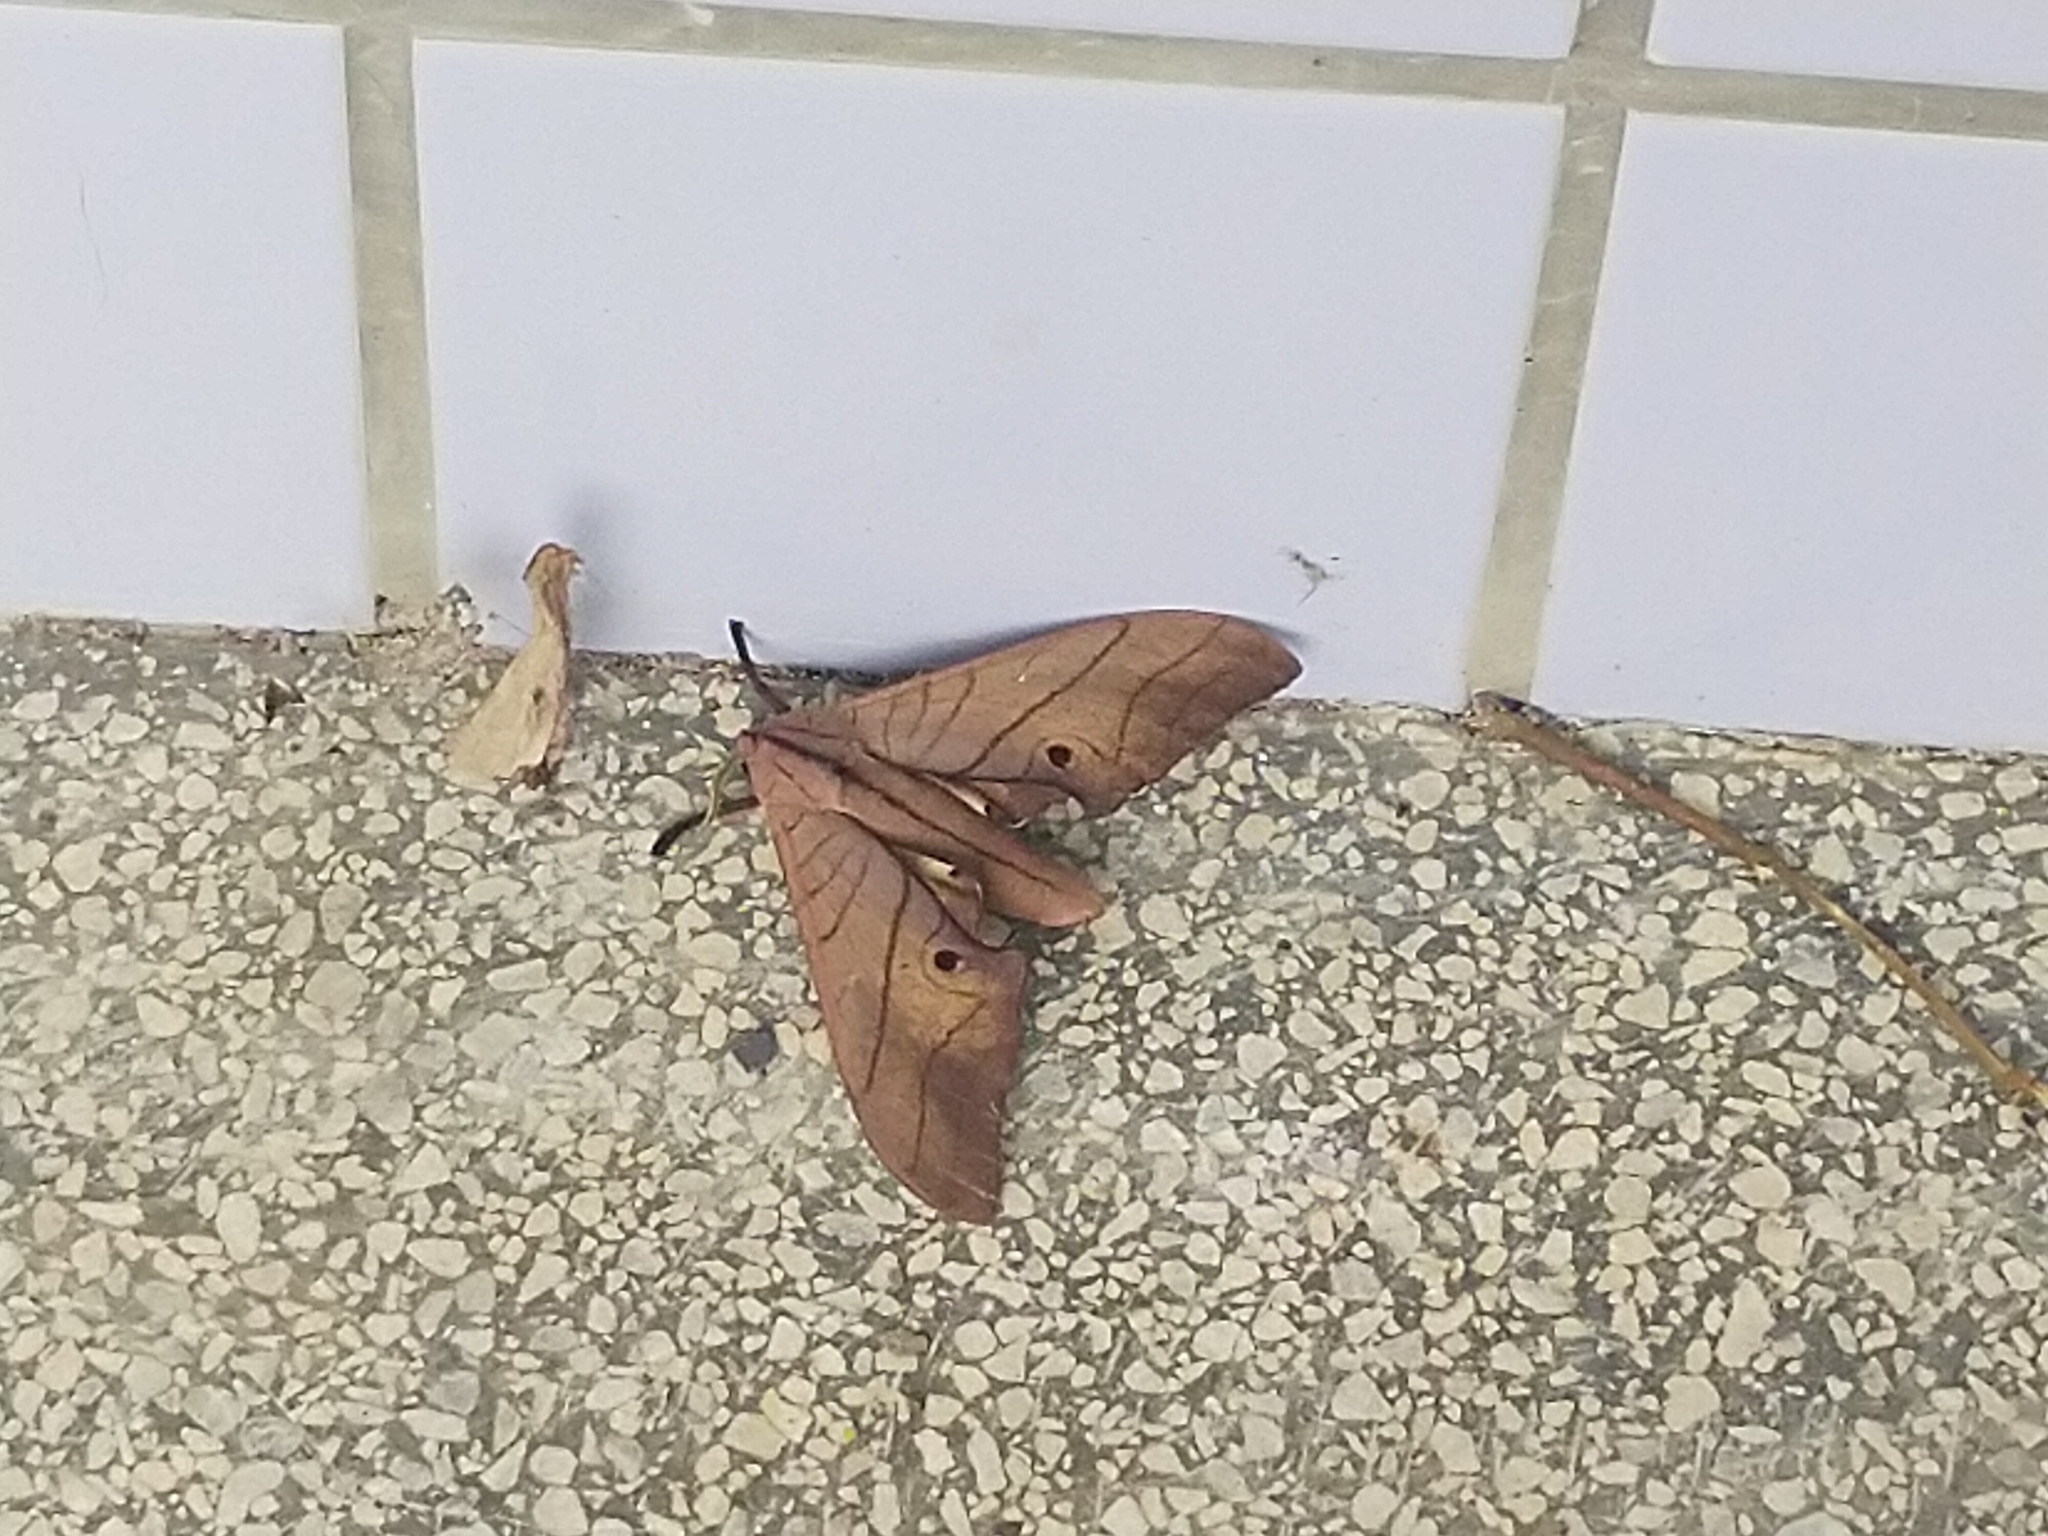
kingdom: Animalia
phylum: Arthropoda
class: Insecta
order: Lepidoptera
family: Sphingidae
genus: Marumba
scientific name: Marumba cristata
